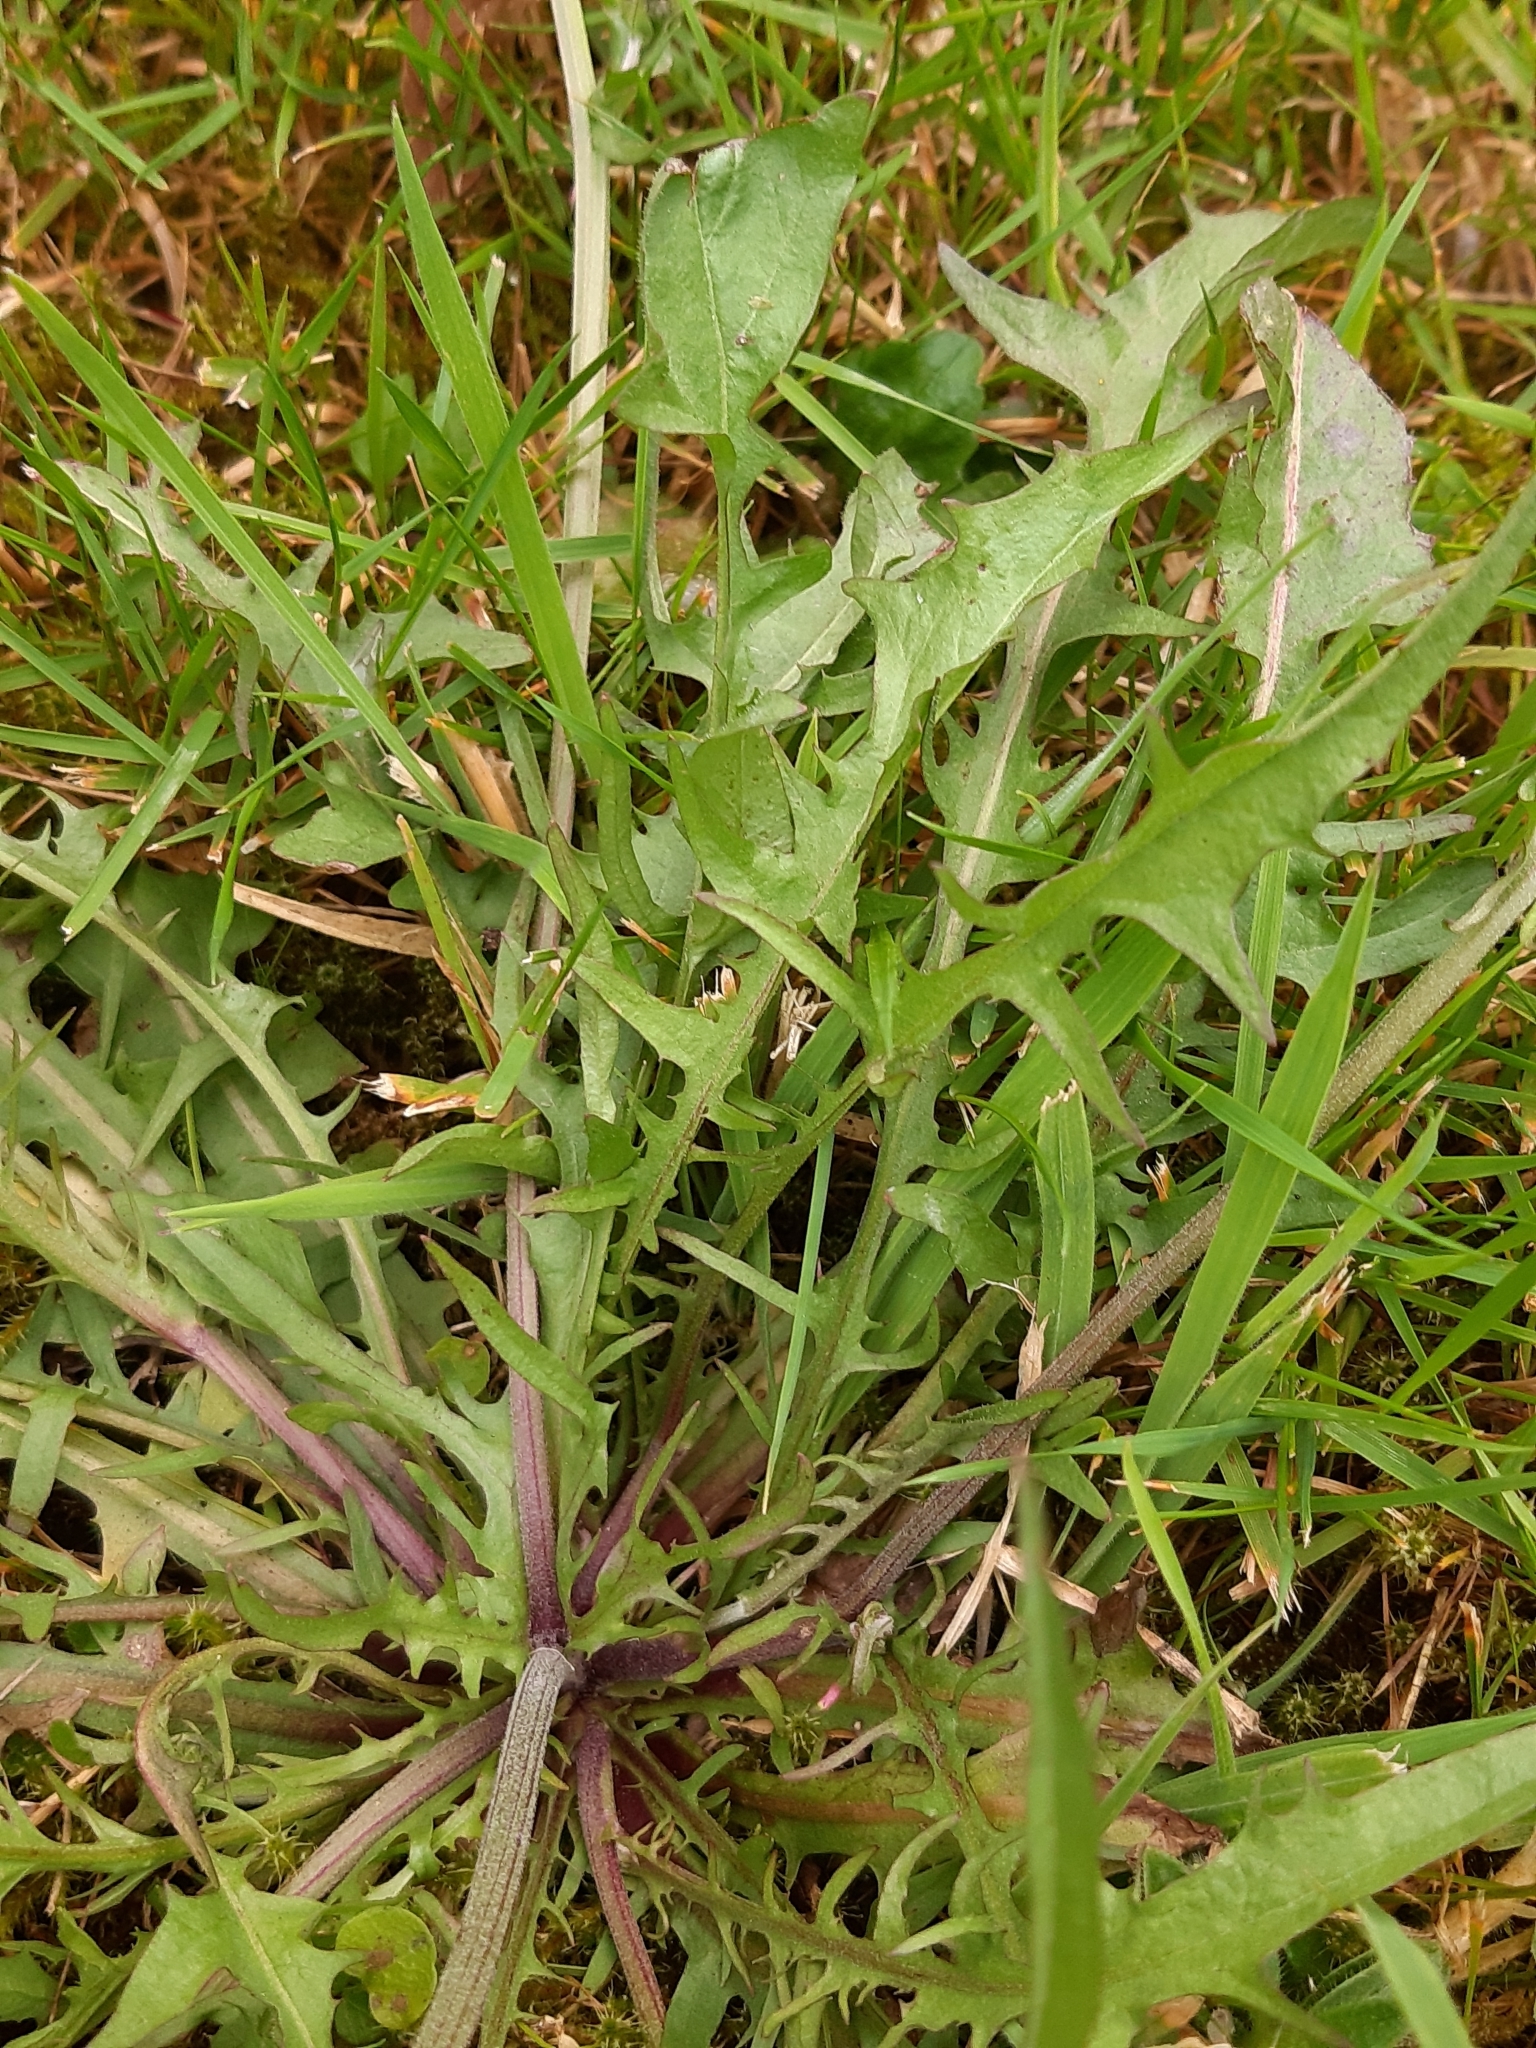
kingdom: Plantae
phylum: Tracheophyta
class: Magnoliopsida
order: Asterales
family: Asteraceae
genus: Crepis
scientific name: Crepis capillaris
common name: Smooth hawksbeard
